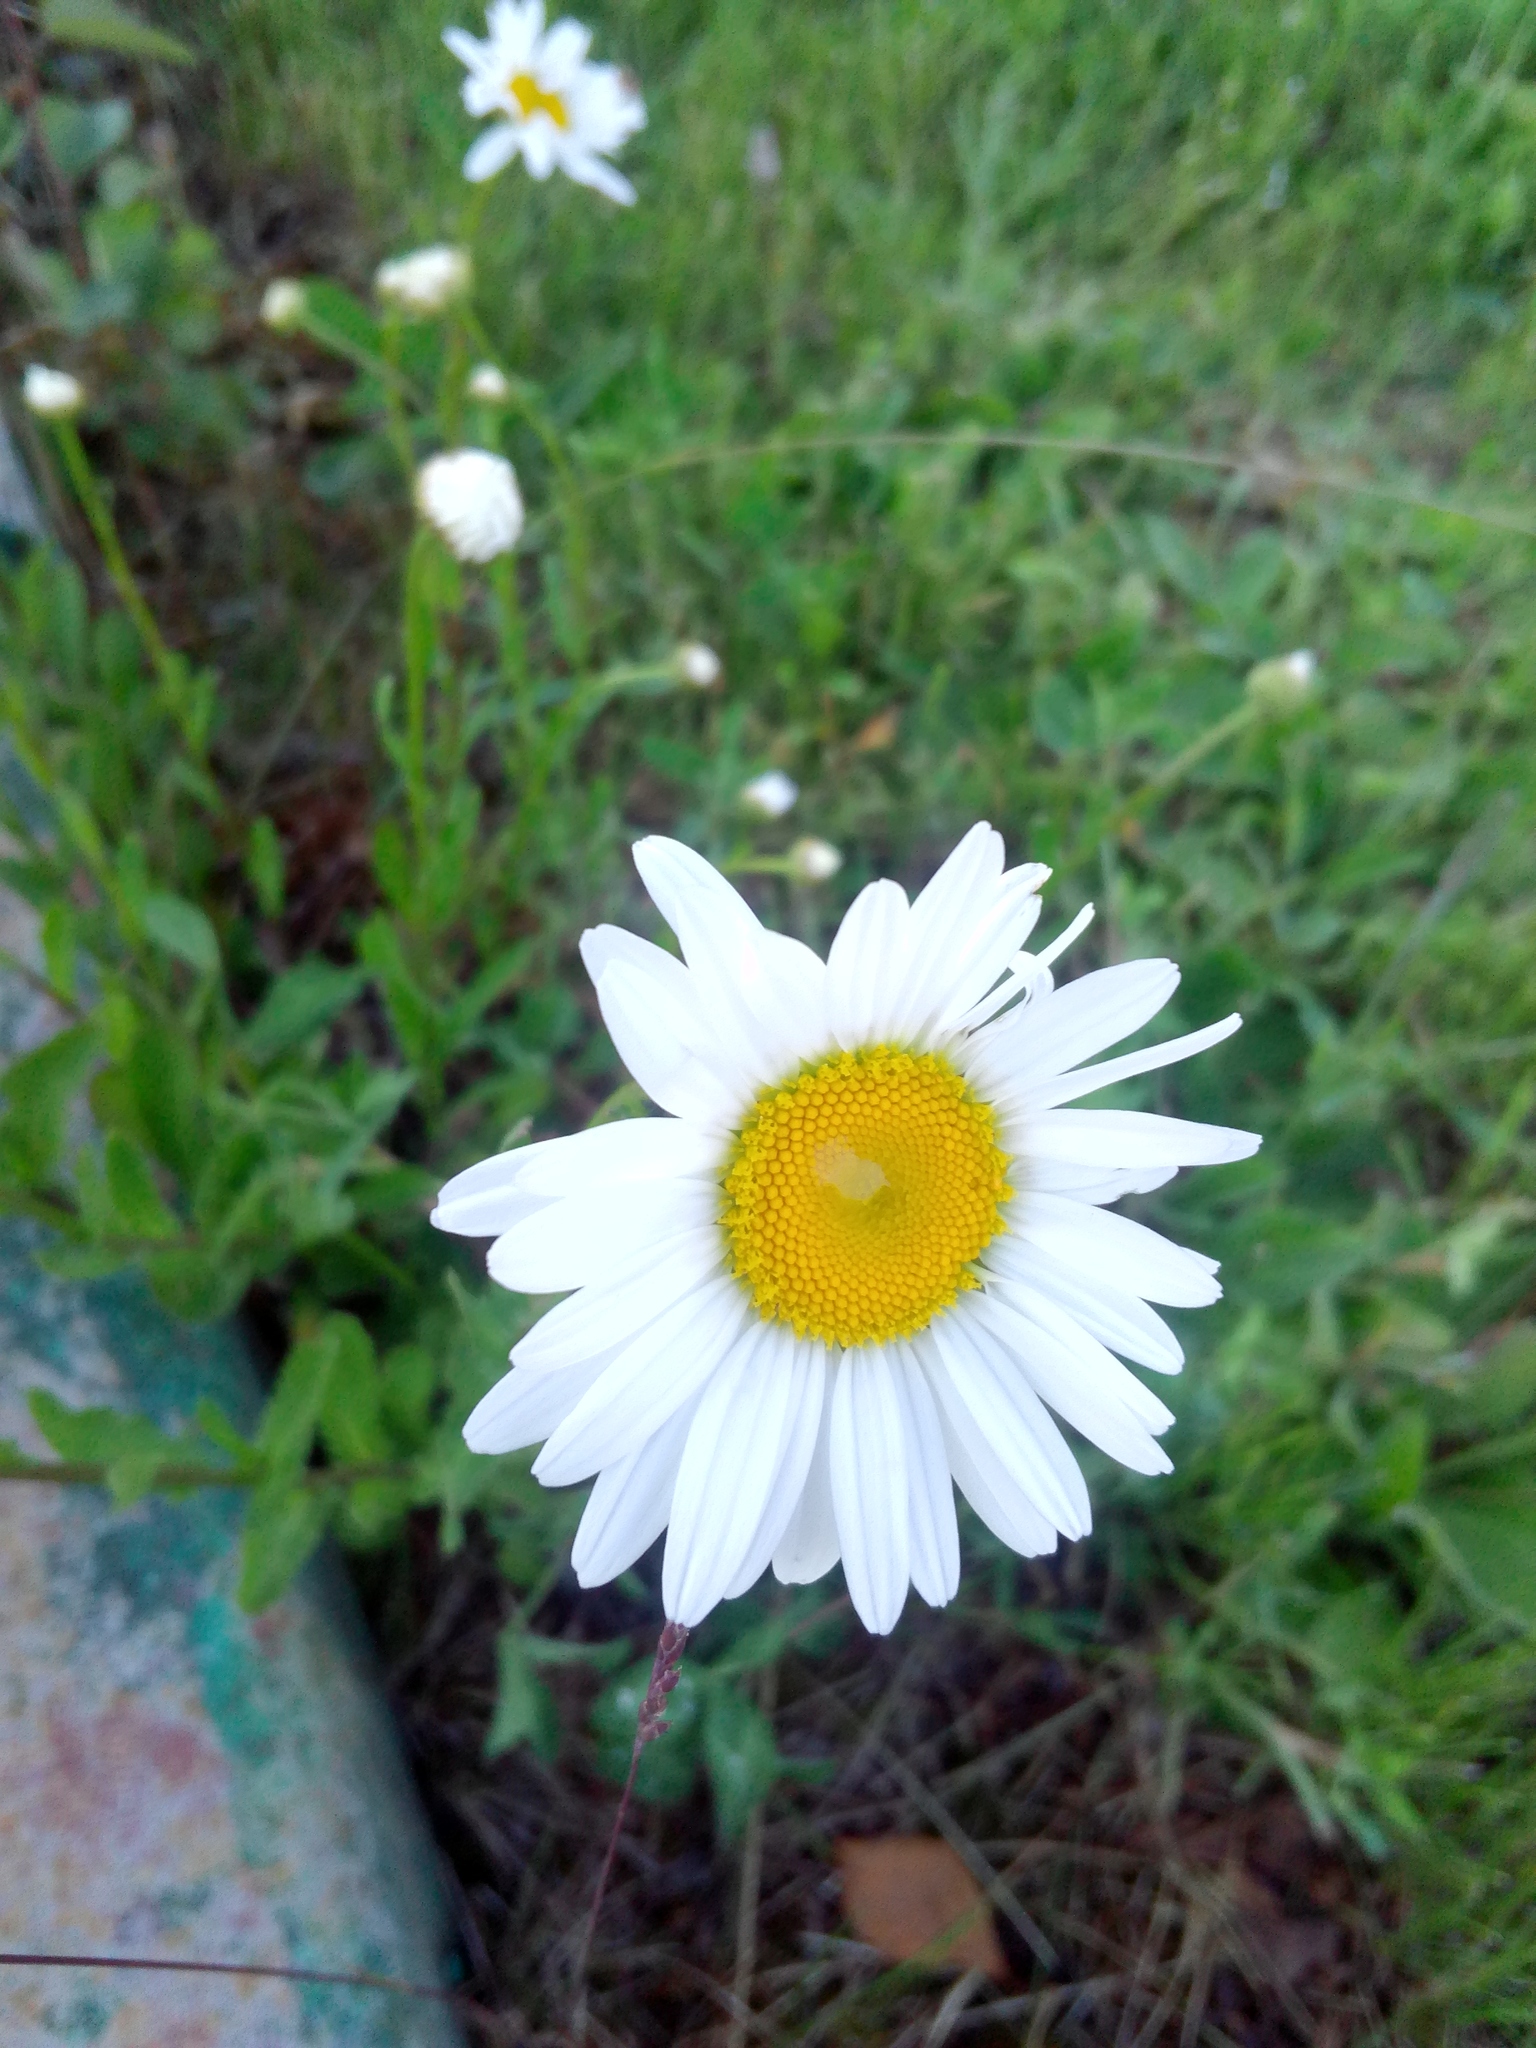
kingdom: Plantae
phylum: Tracheophyta
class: Magnoliopsida
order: Asterales
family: Asteraceae
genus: Leucanthemum
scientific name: Leucanthemum ircutianum
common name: Daisy
